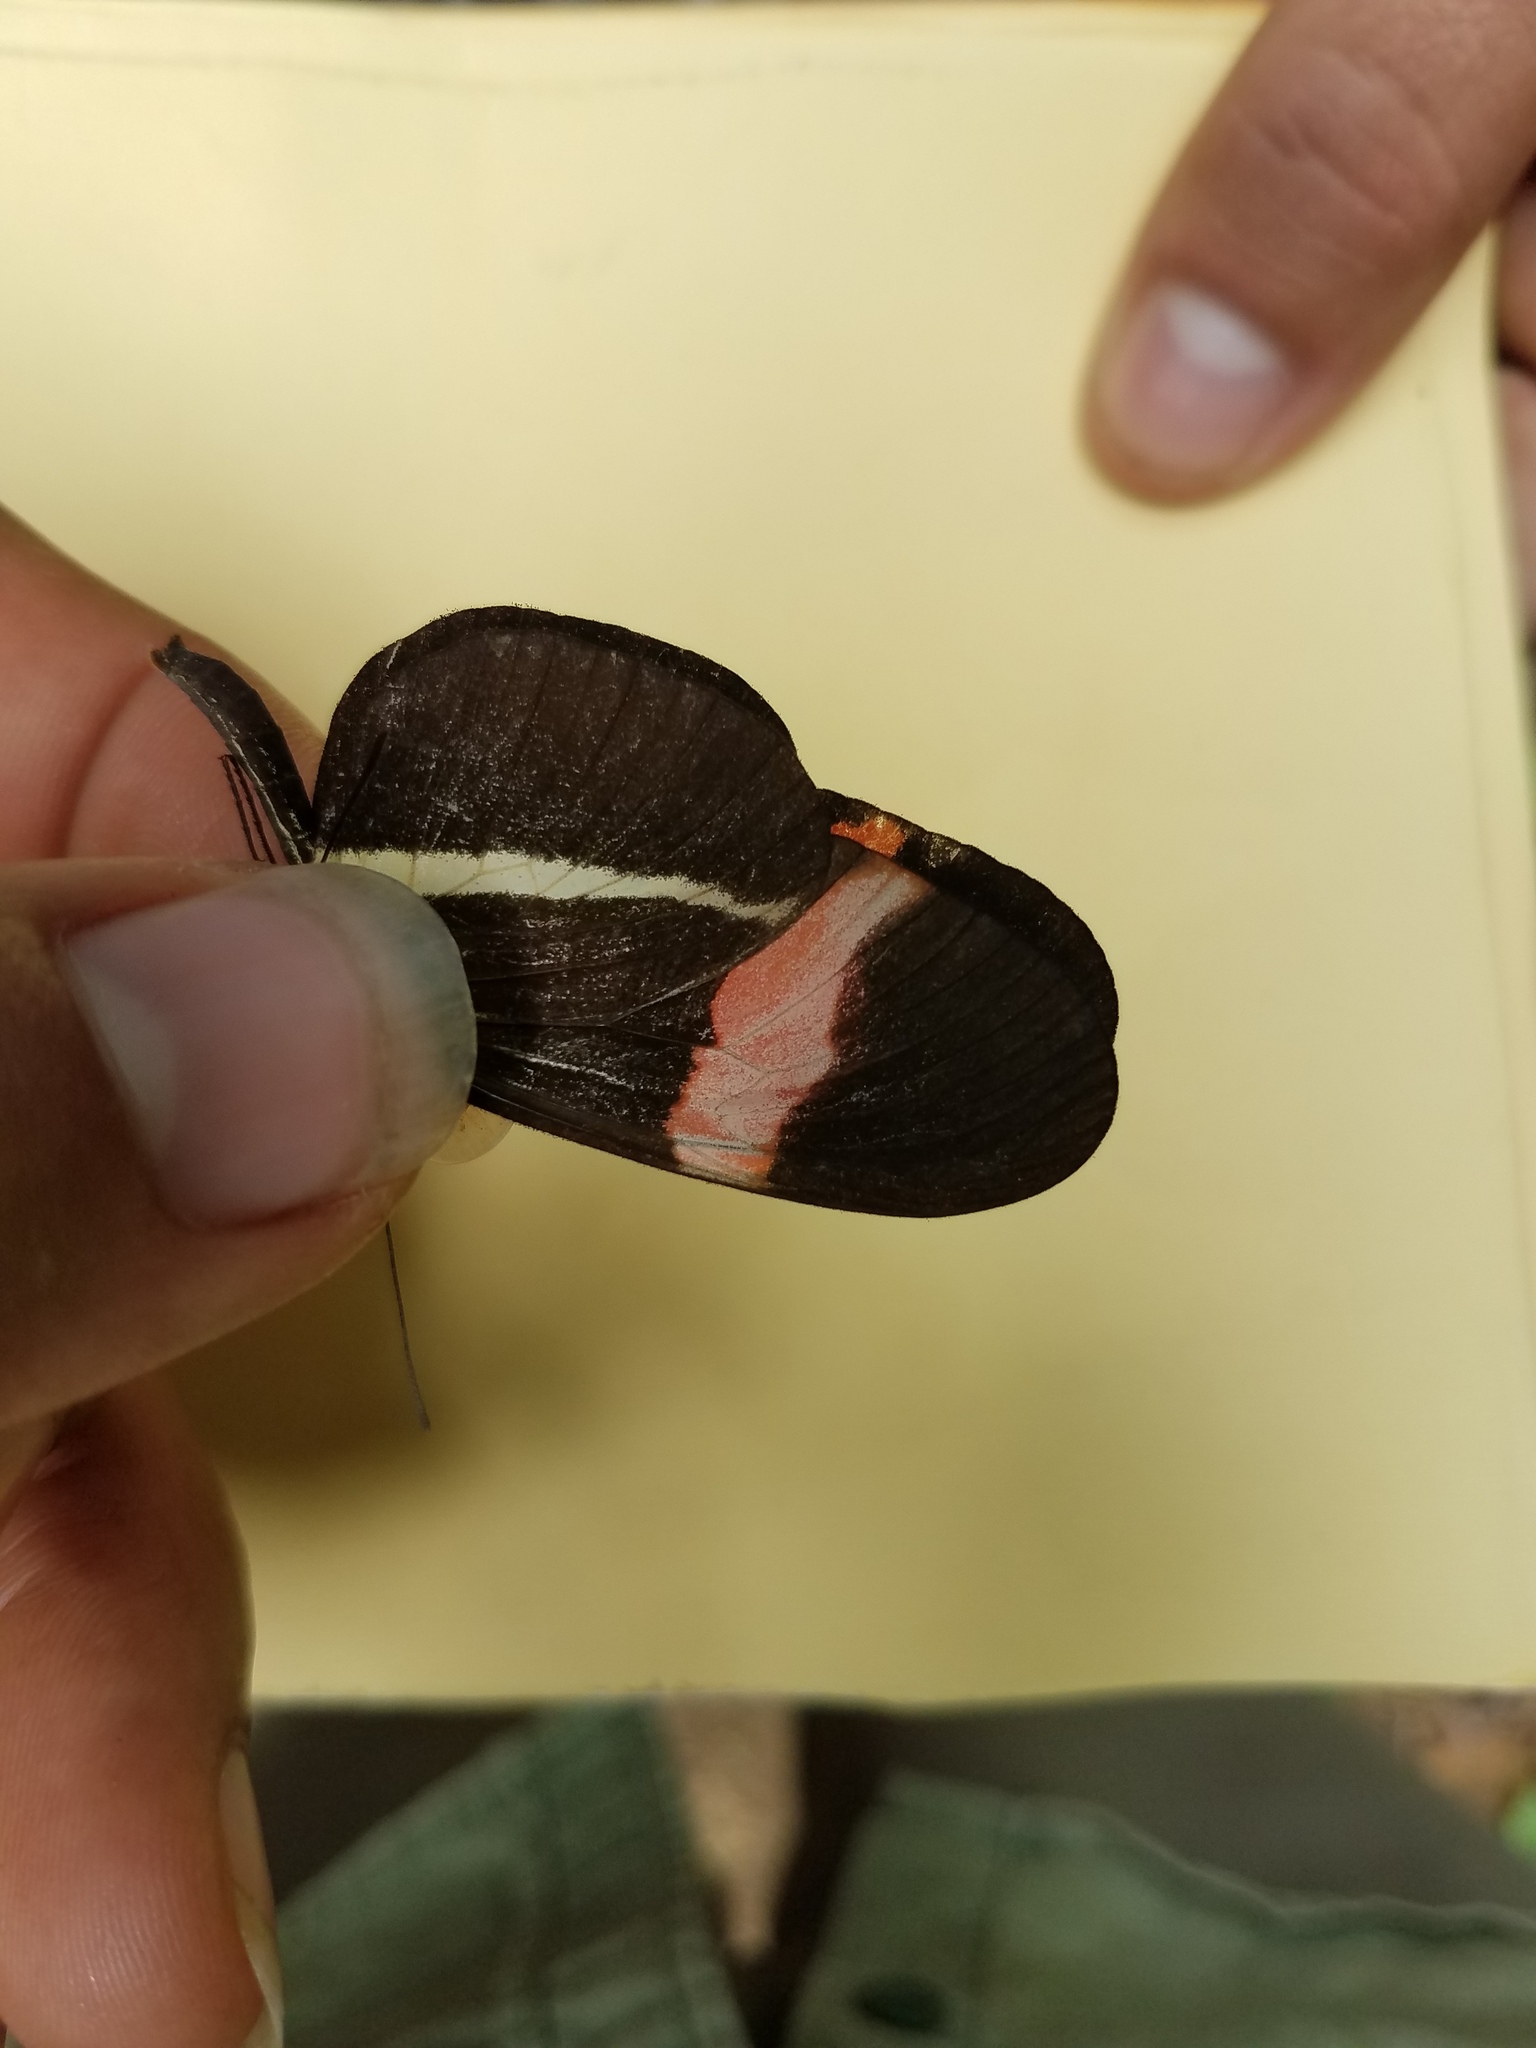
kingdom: Animalia
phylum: Arthropoda
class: Insecta
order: Lepidoptera
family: Nymphalidae
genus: Tirumala
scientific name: Tirumala petiverana
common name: Blue monarch
